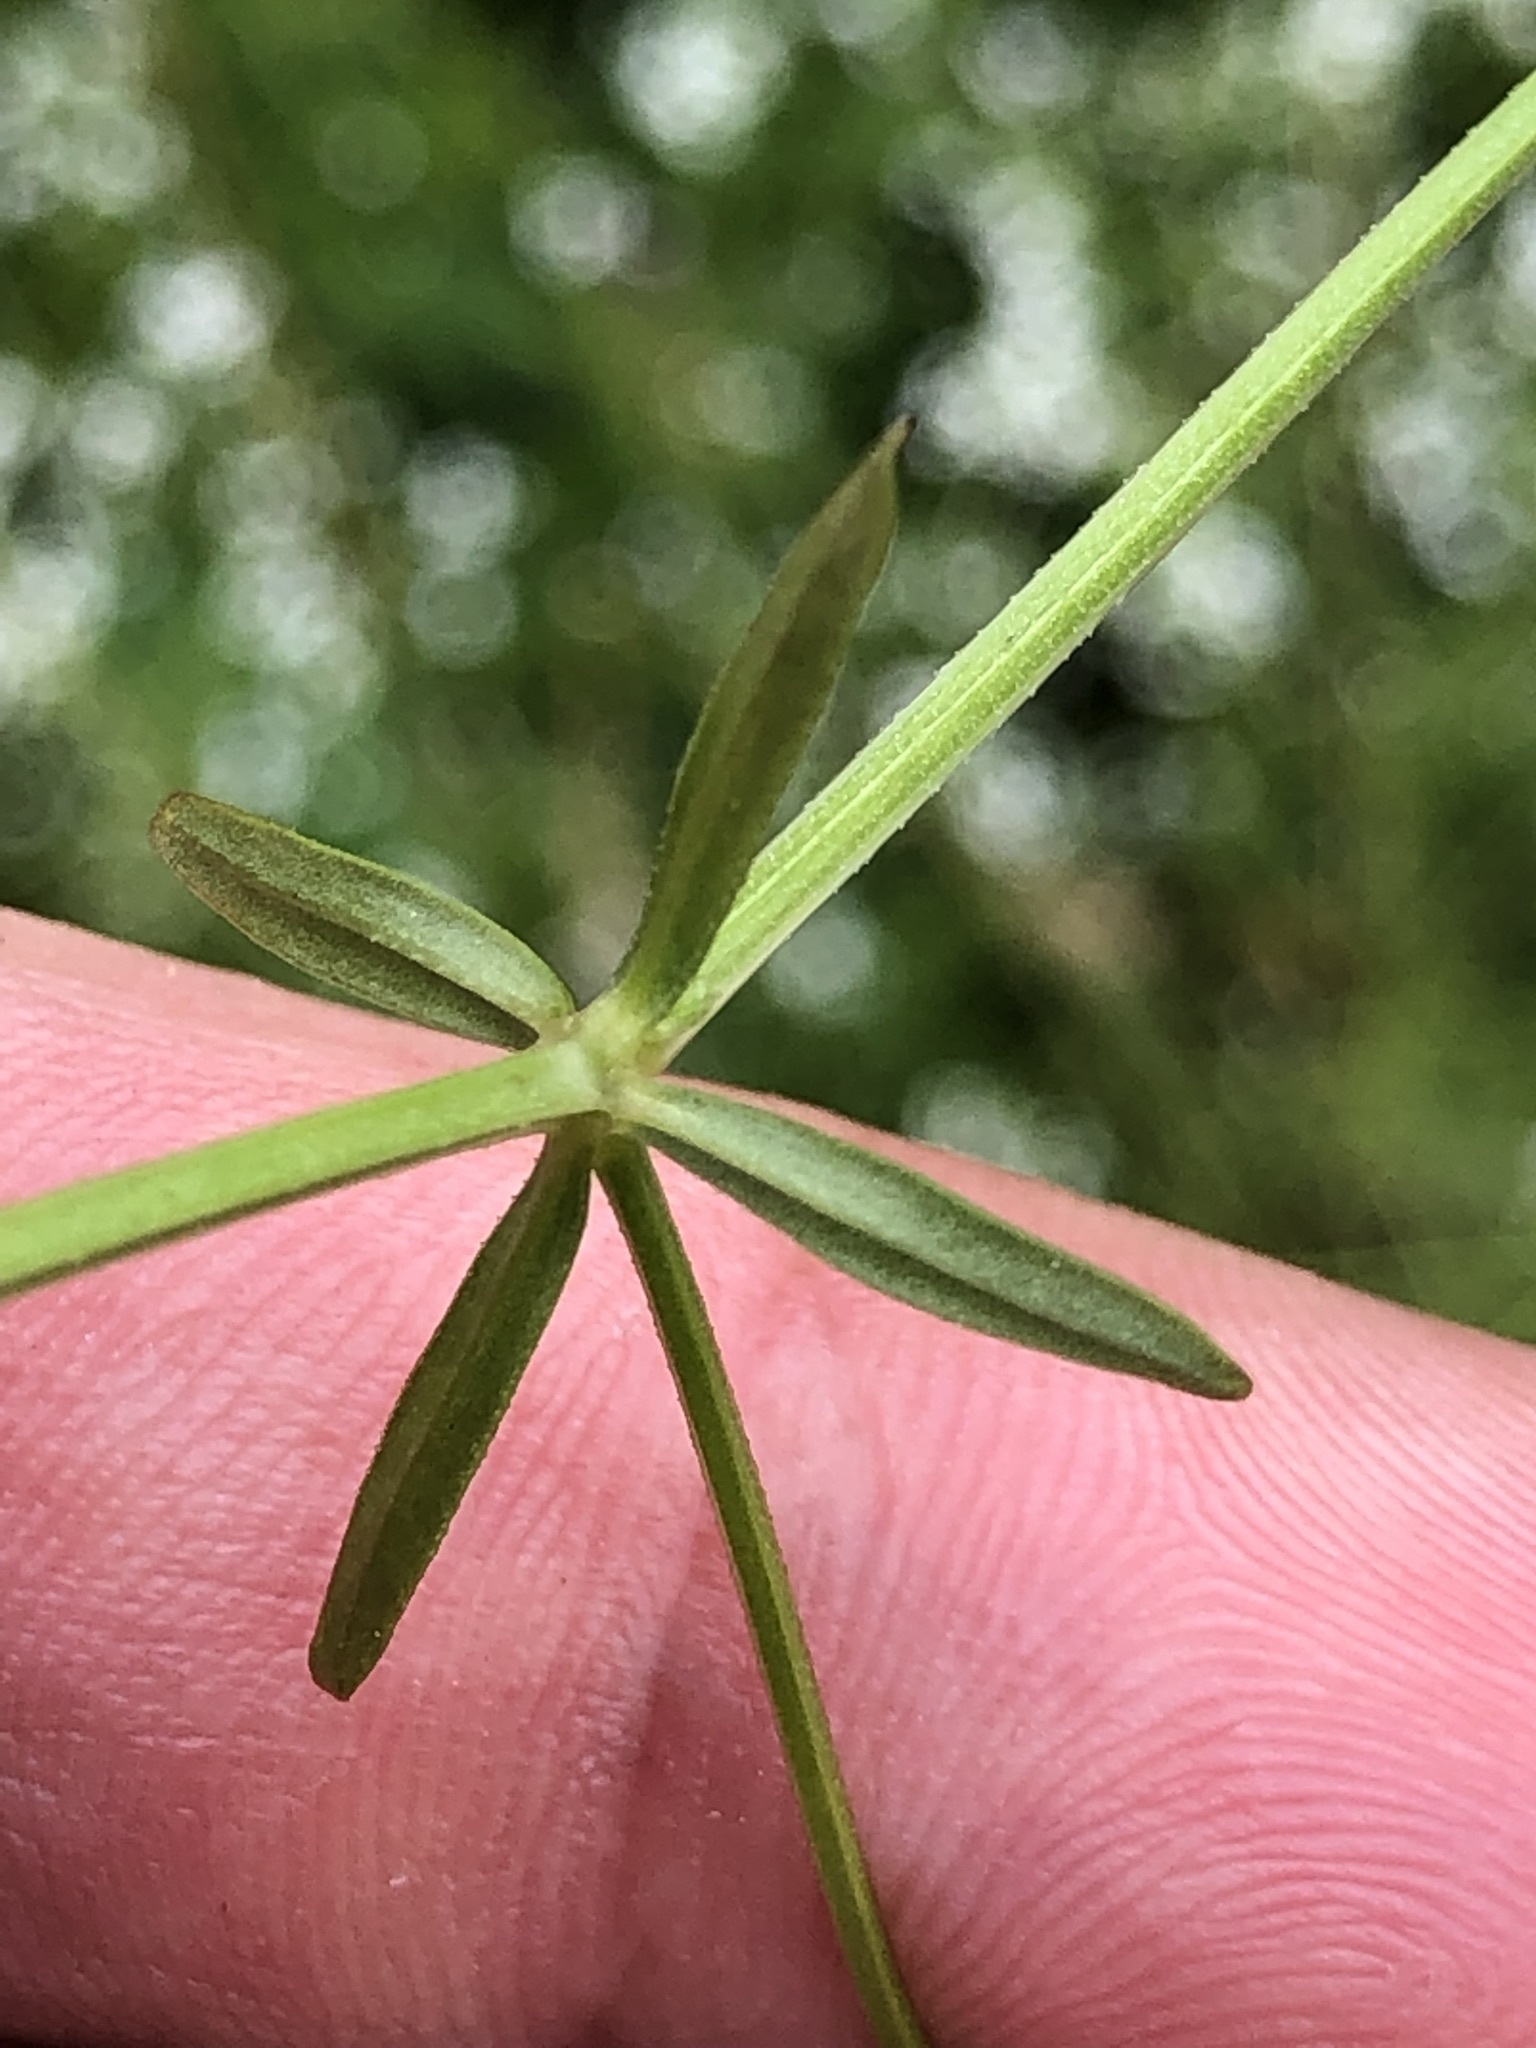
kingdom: Plantae
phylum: Tracheophyta
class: Magnoliopsida
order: Gentianales
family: Rubiaceae
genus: Galium
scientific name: Galium elongatum
